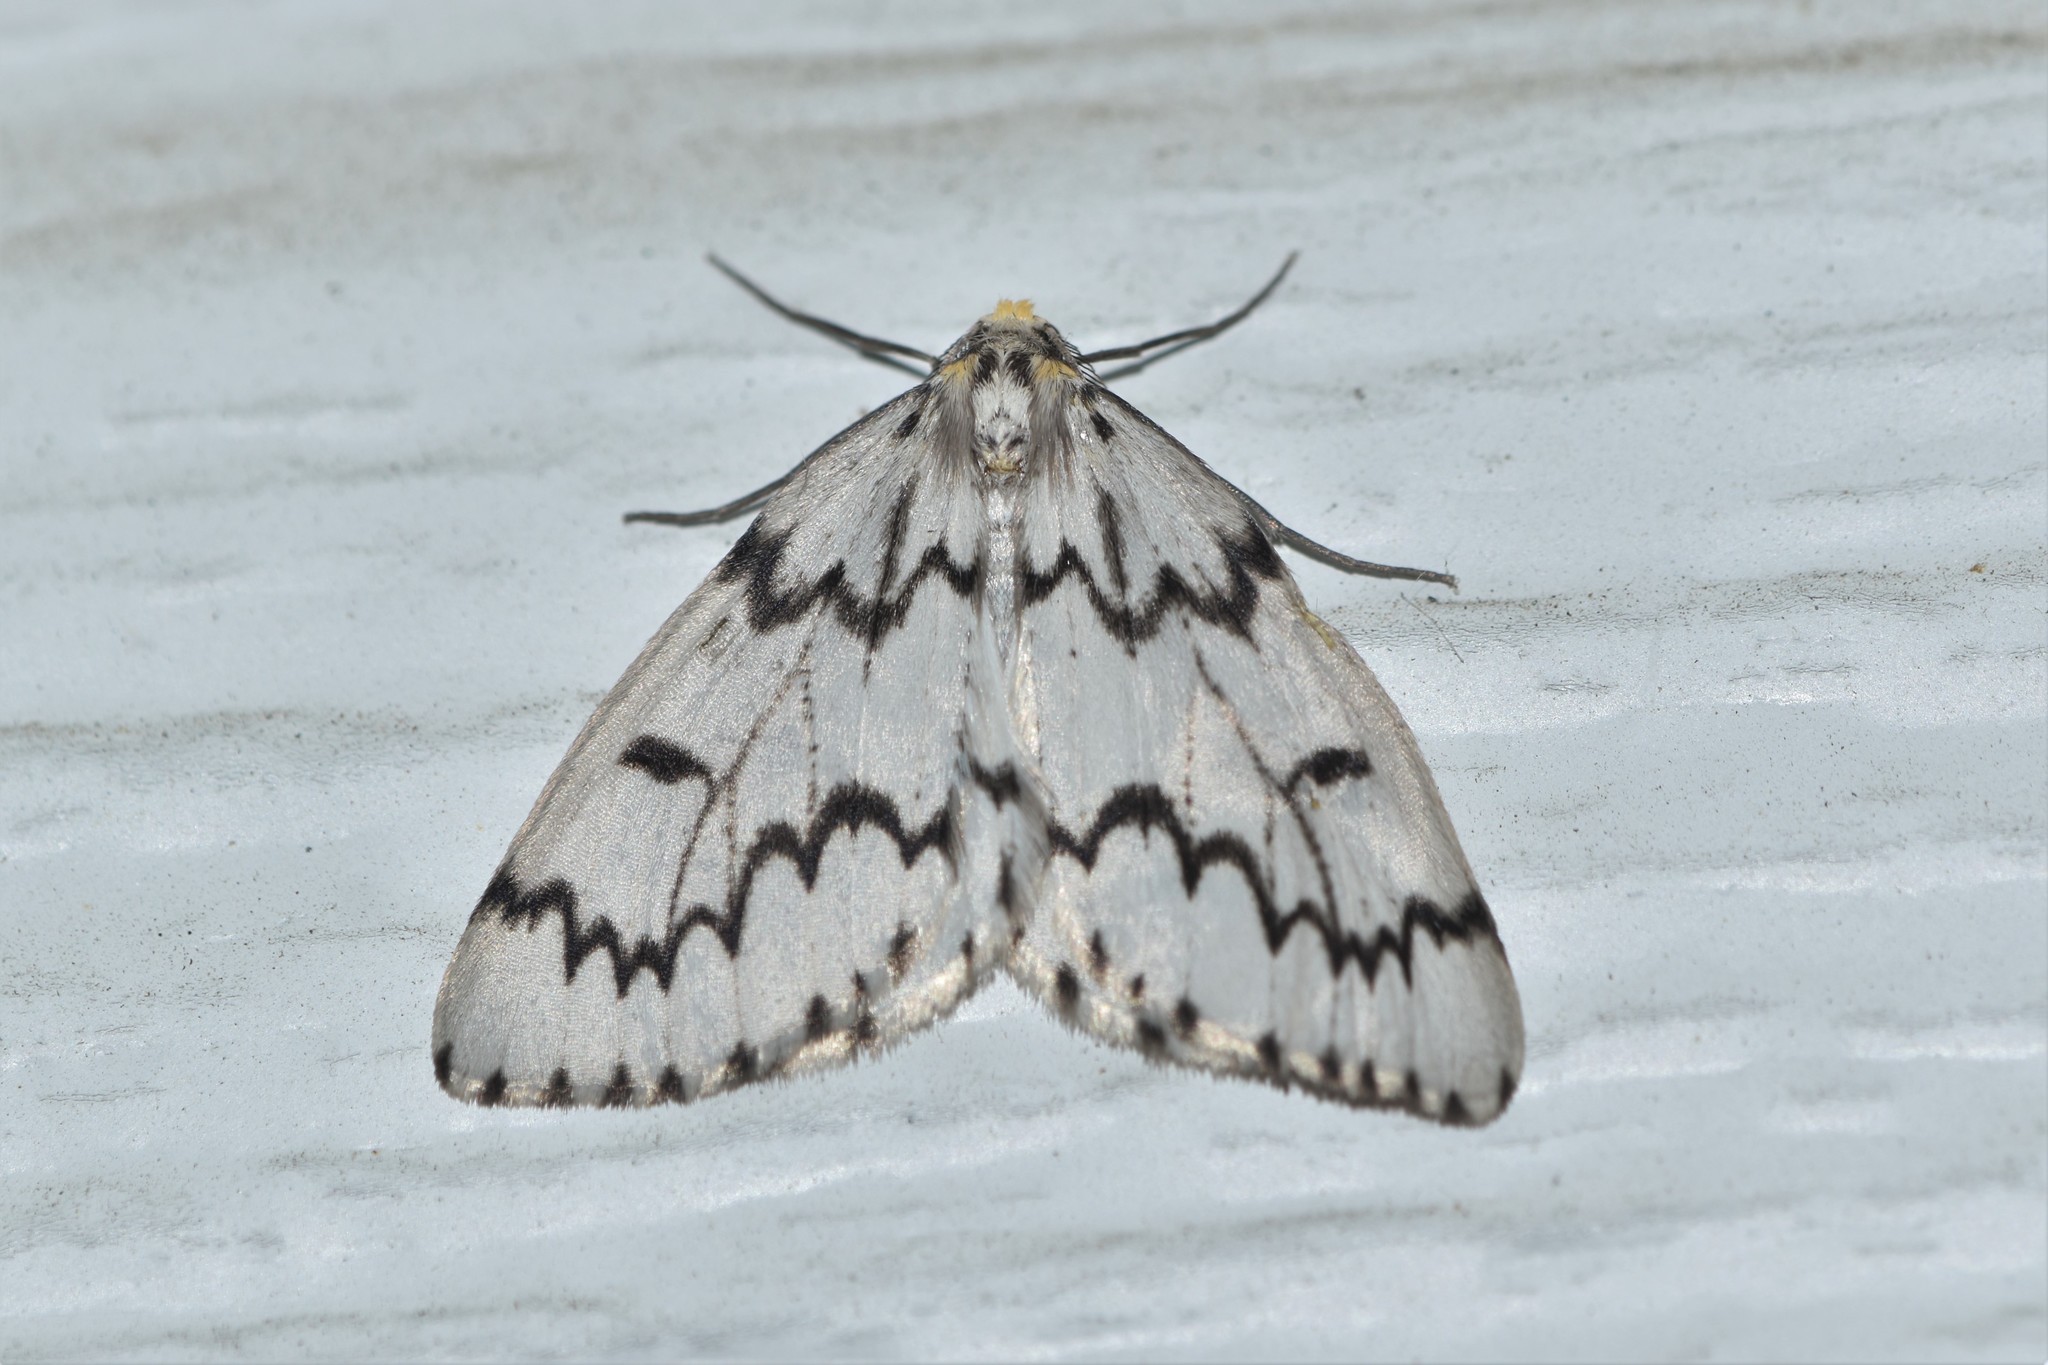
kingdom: Animalia
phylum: Arthropoda
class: Insecta
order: Lepidoptera
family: Geometridae
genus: Nepytia
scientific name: Nepytia phantasmaria
